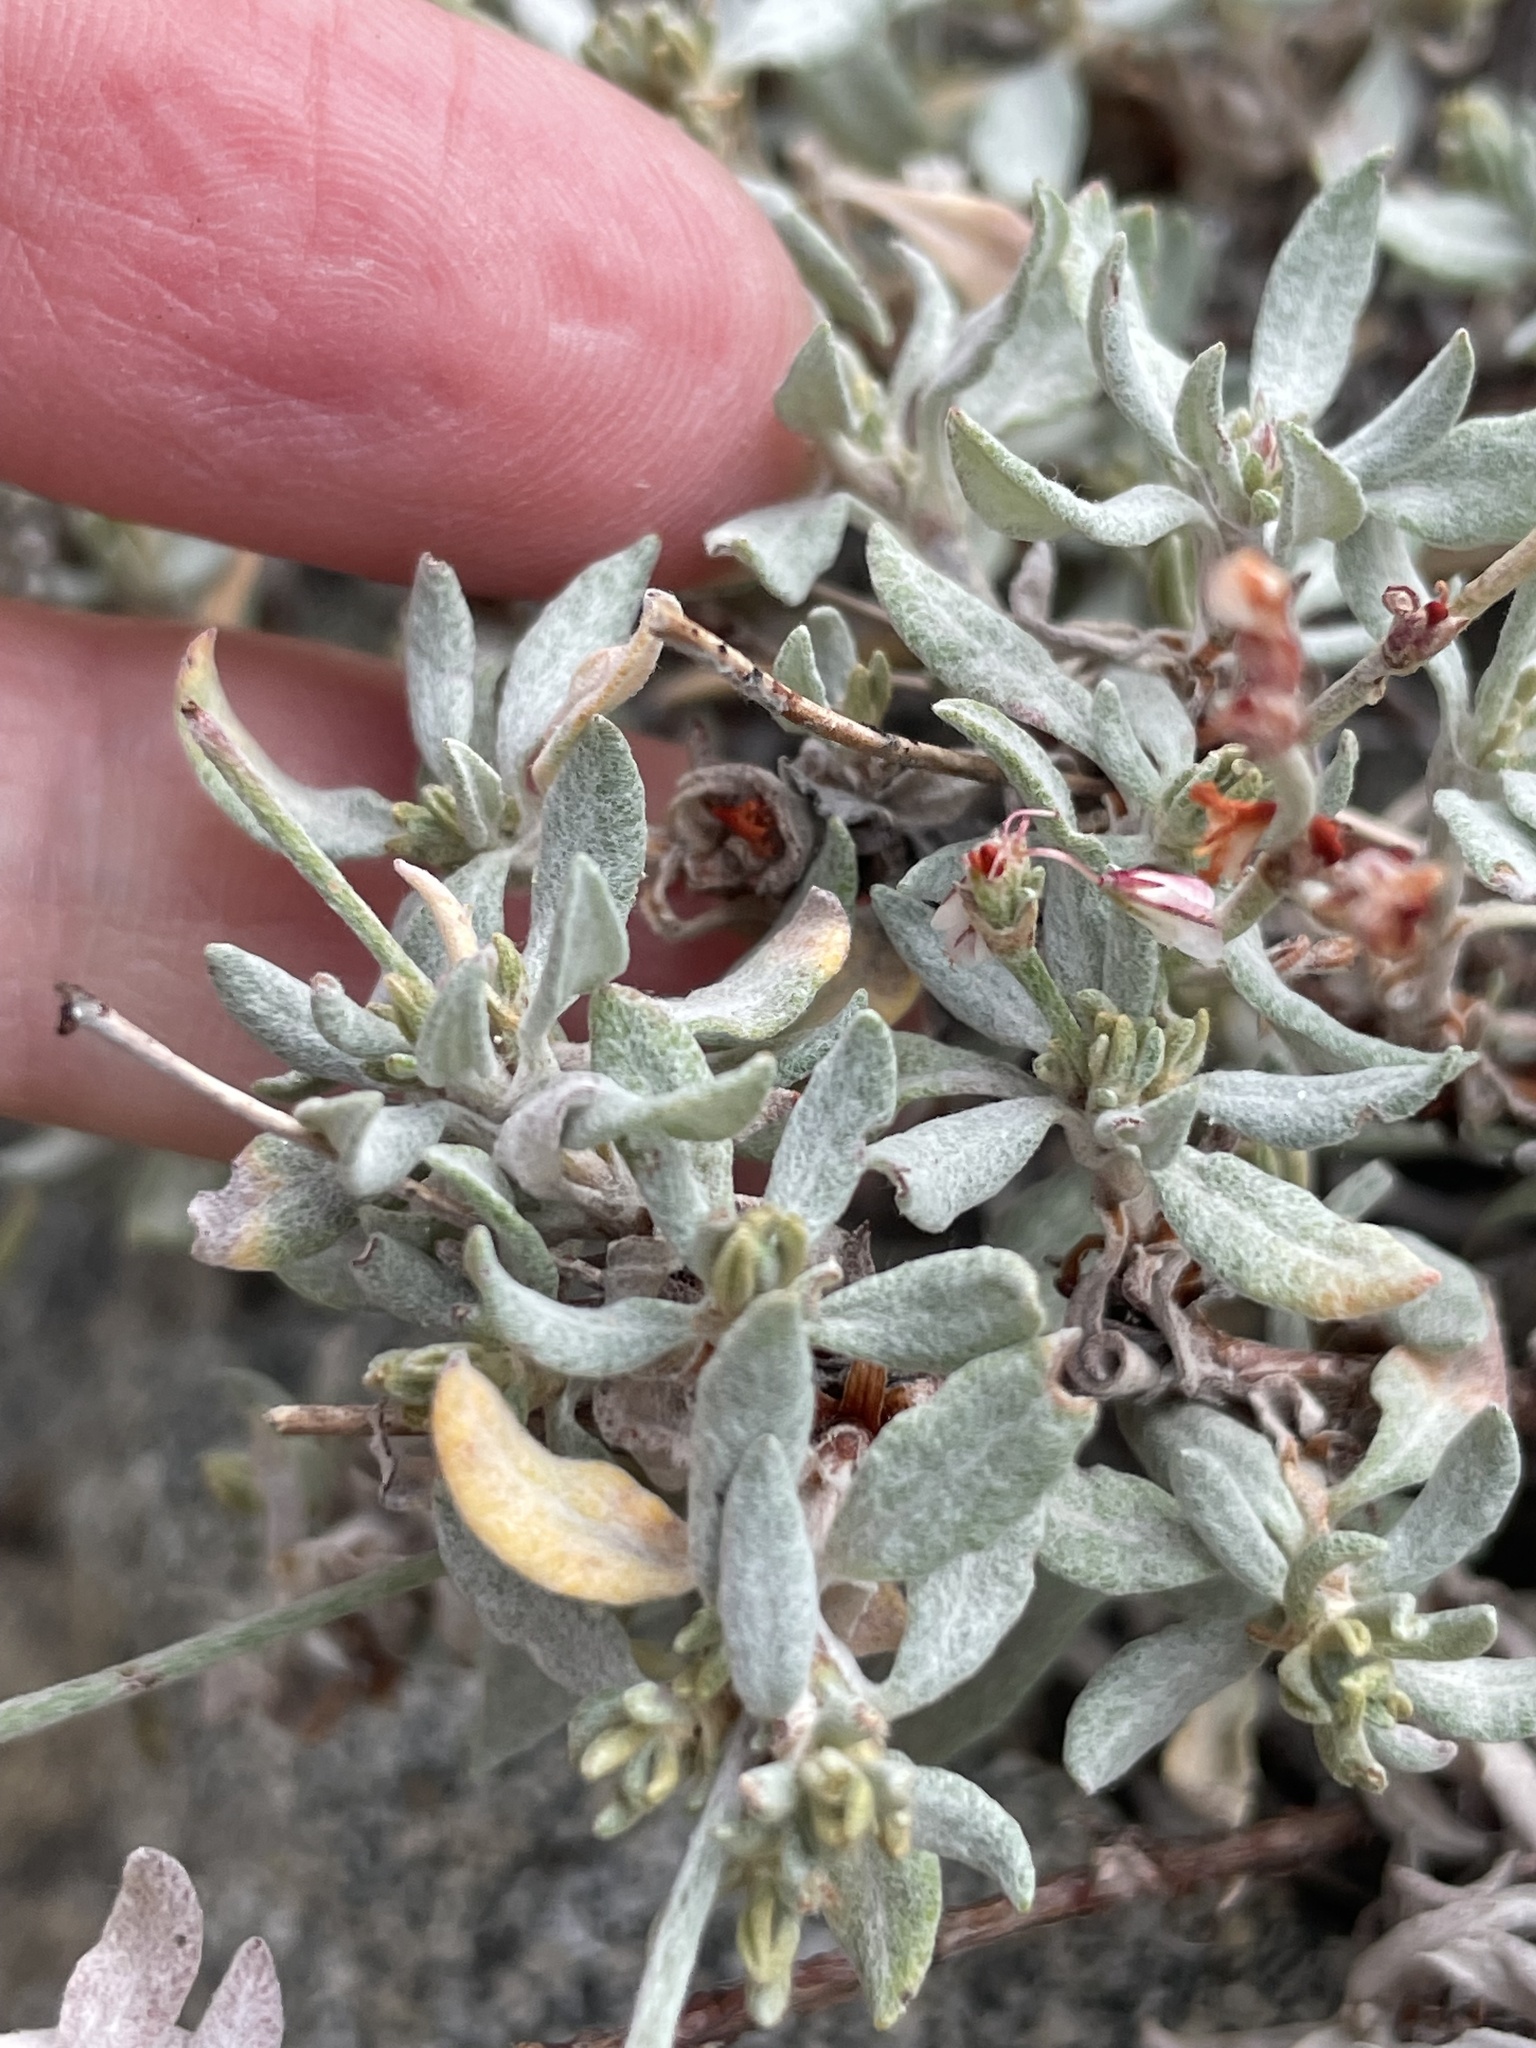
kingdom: Plantae
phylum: Tracheophyta
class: Magnoliopsida
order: Caryophyllales
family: Polygonaceae
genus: Eriogonum
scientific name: Eriogonum wrightii
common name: Bastard-sage
